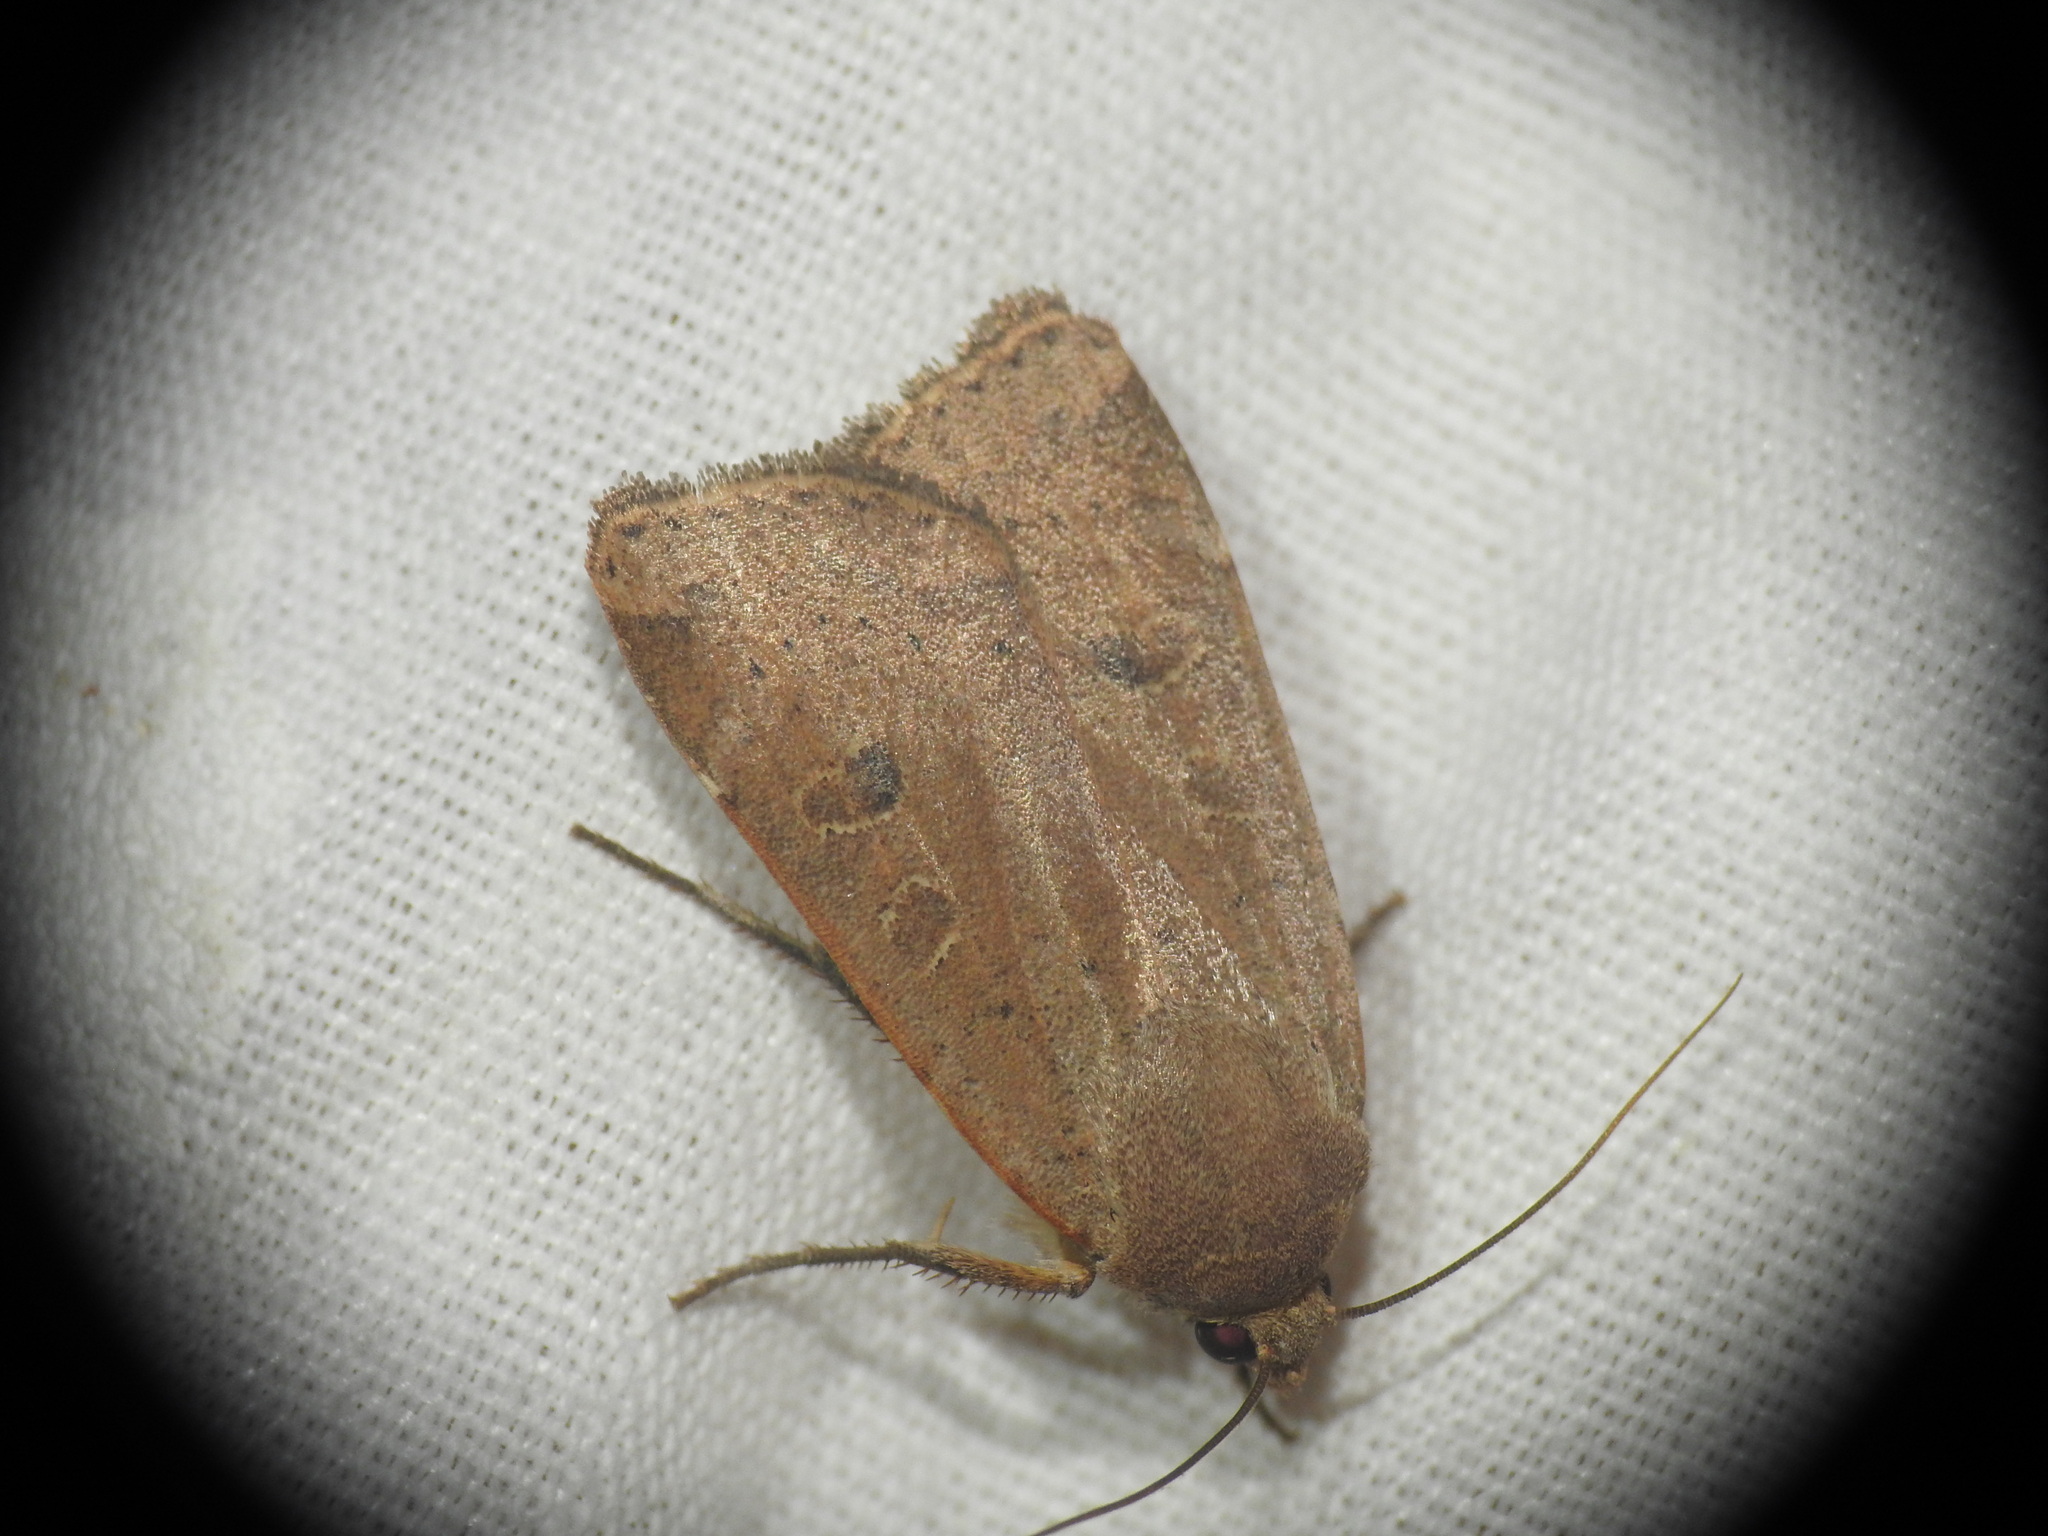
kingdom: Animalia
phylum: Arthropoda
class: Insecta
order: Lepidoptera
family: Noctuidae
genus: Noctua
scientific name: Noctua comes
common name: Lesser yellow underwing
